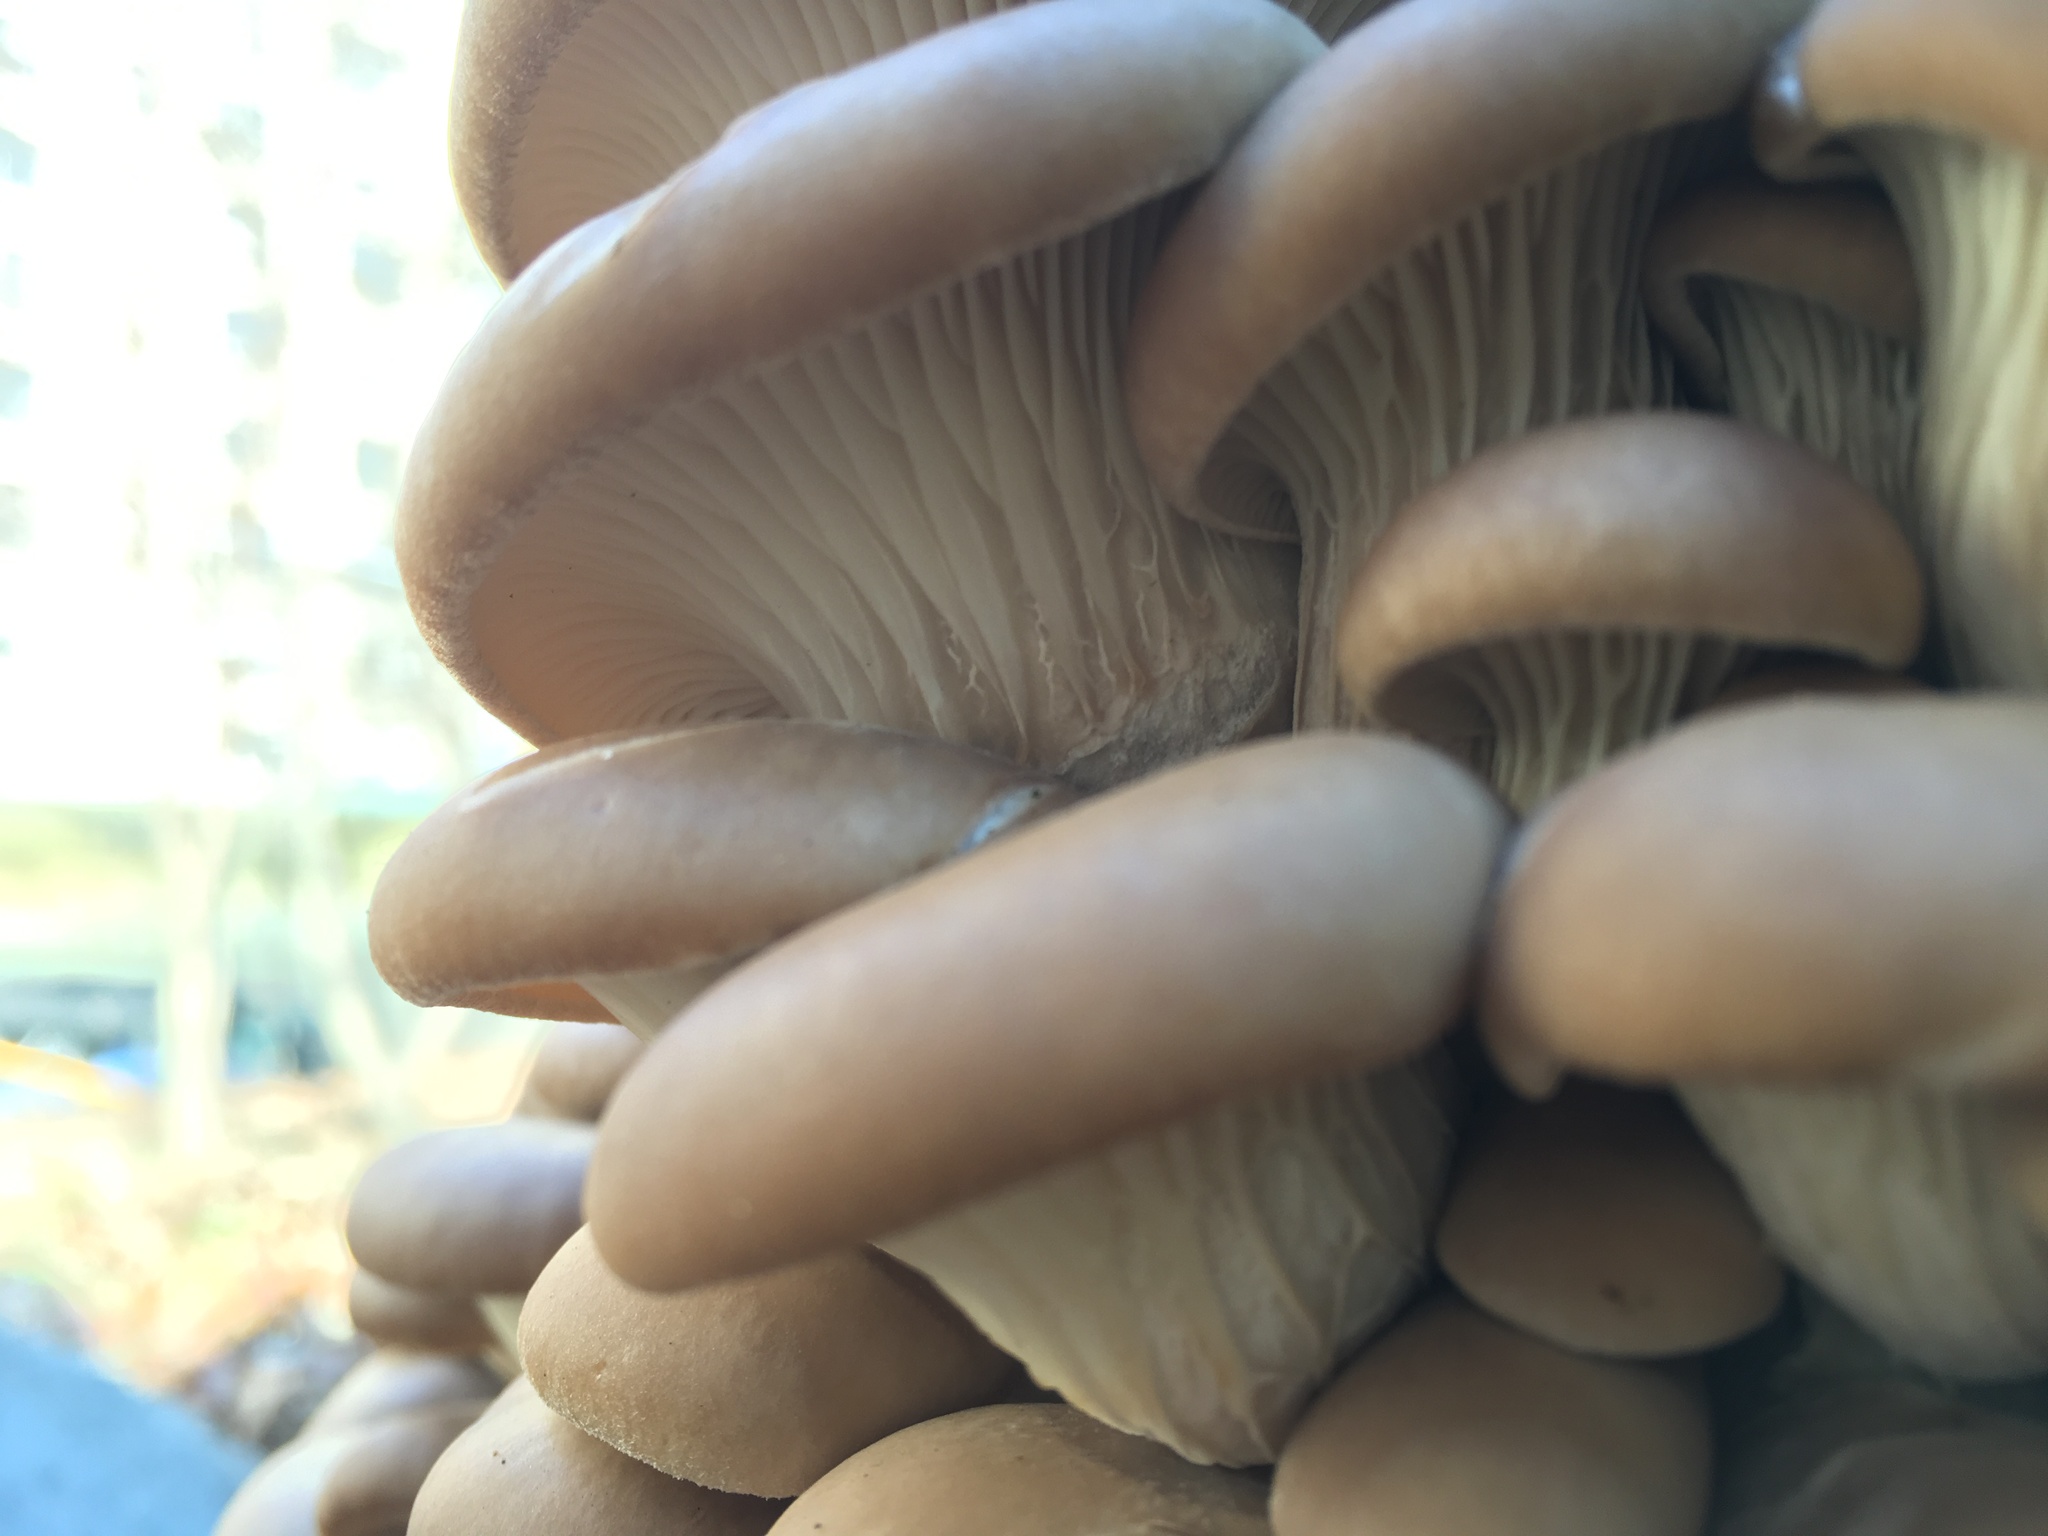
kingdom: Fungi
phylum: Basidiomycota
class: Agaricomycetes
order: Agaricales
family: Pleurotaceae
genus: Pleurotus
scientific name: Pleurotus ostreatus
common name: Oyster mushroom
